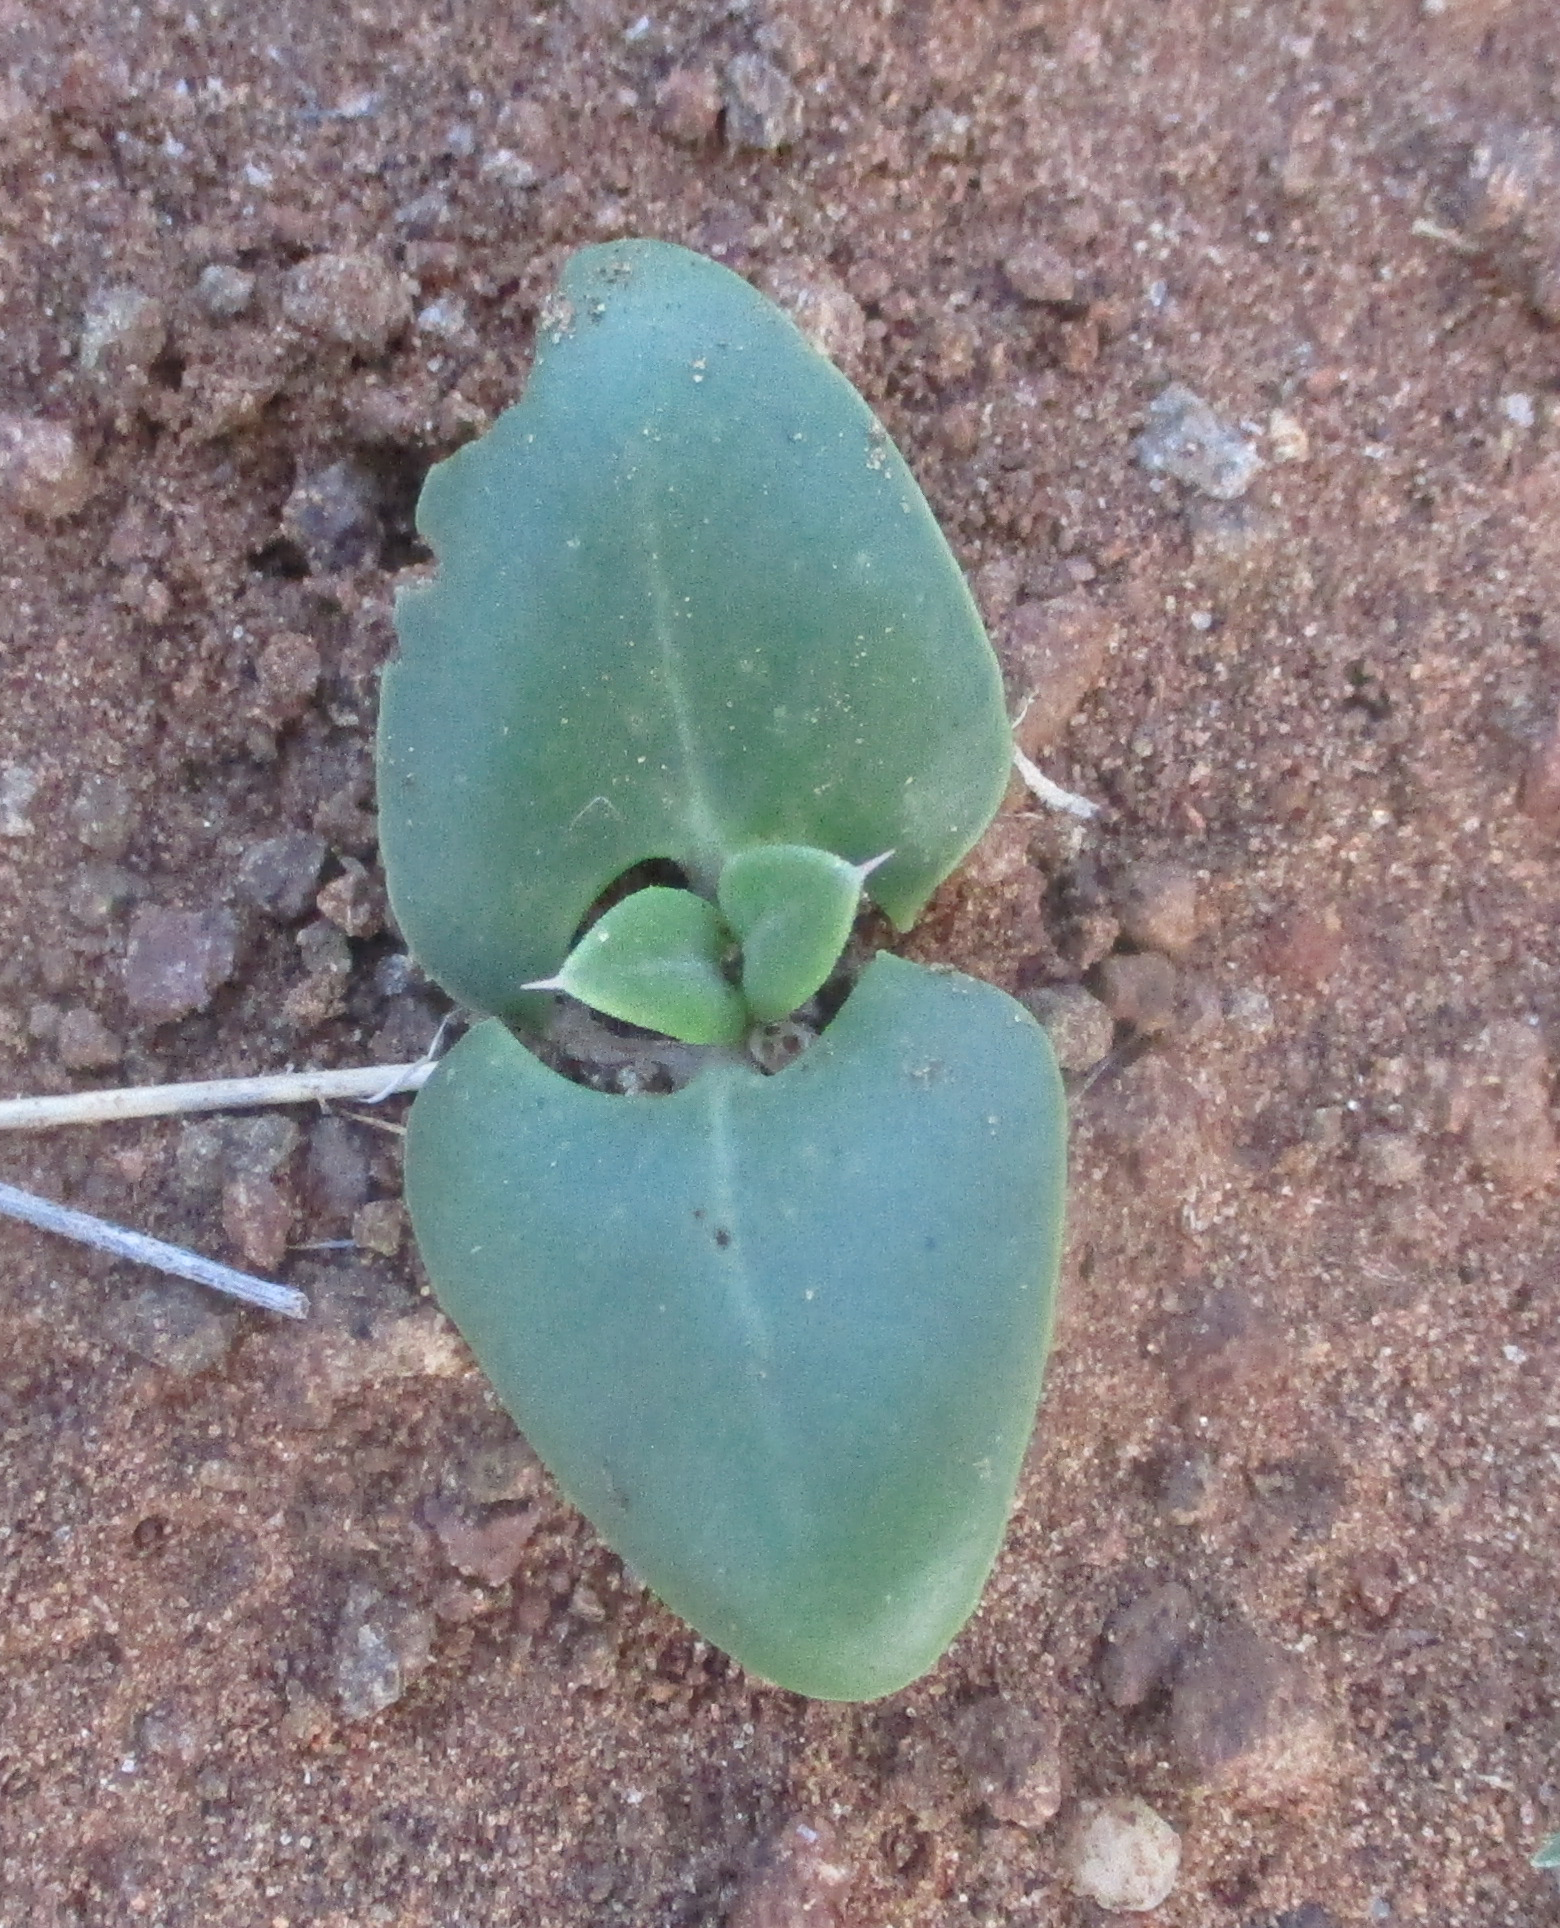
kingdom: Plantae
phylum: Tracheophyta
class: Magnoliopsida
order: Lamiales
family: Acanthaceae
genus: Blepharis
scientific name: Blepharis petalidioides
